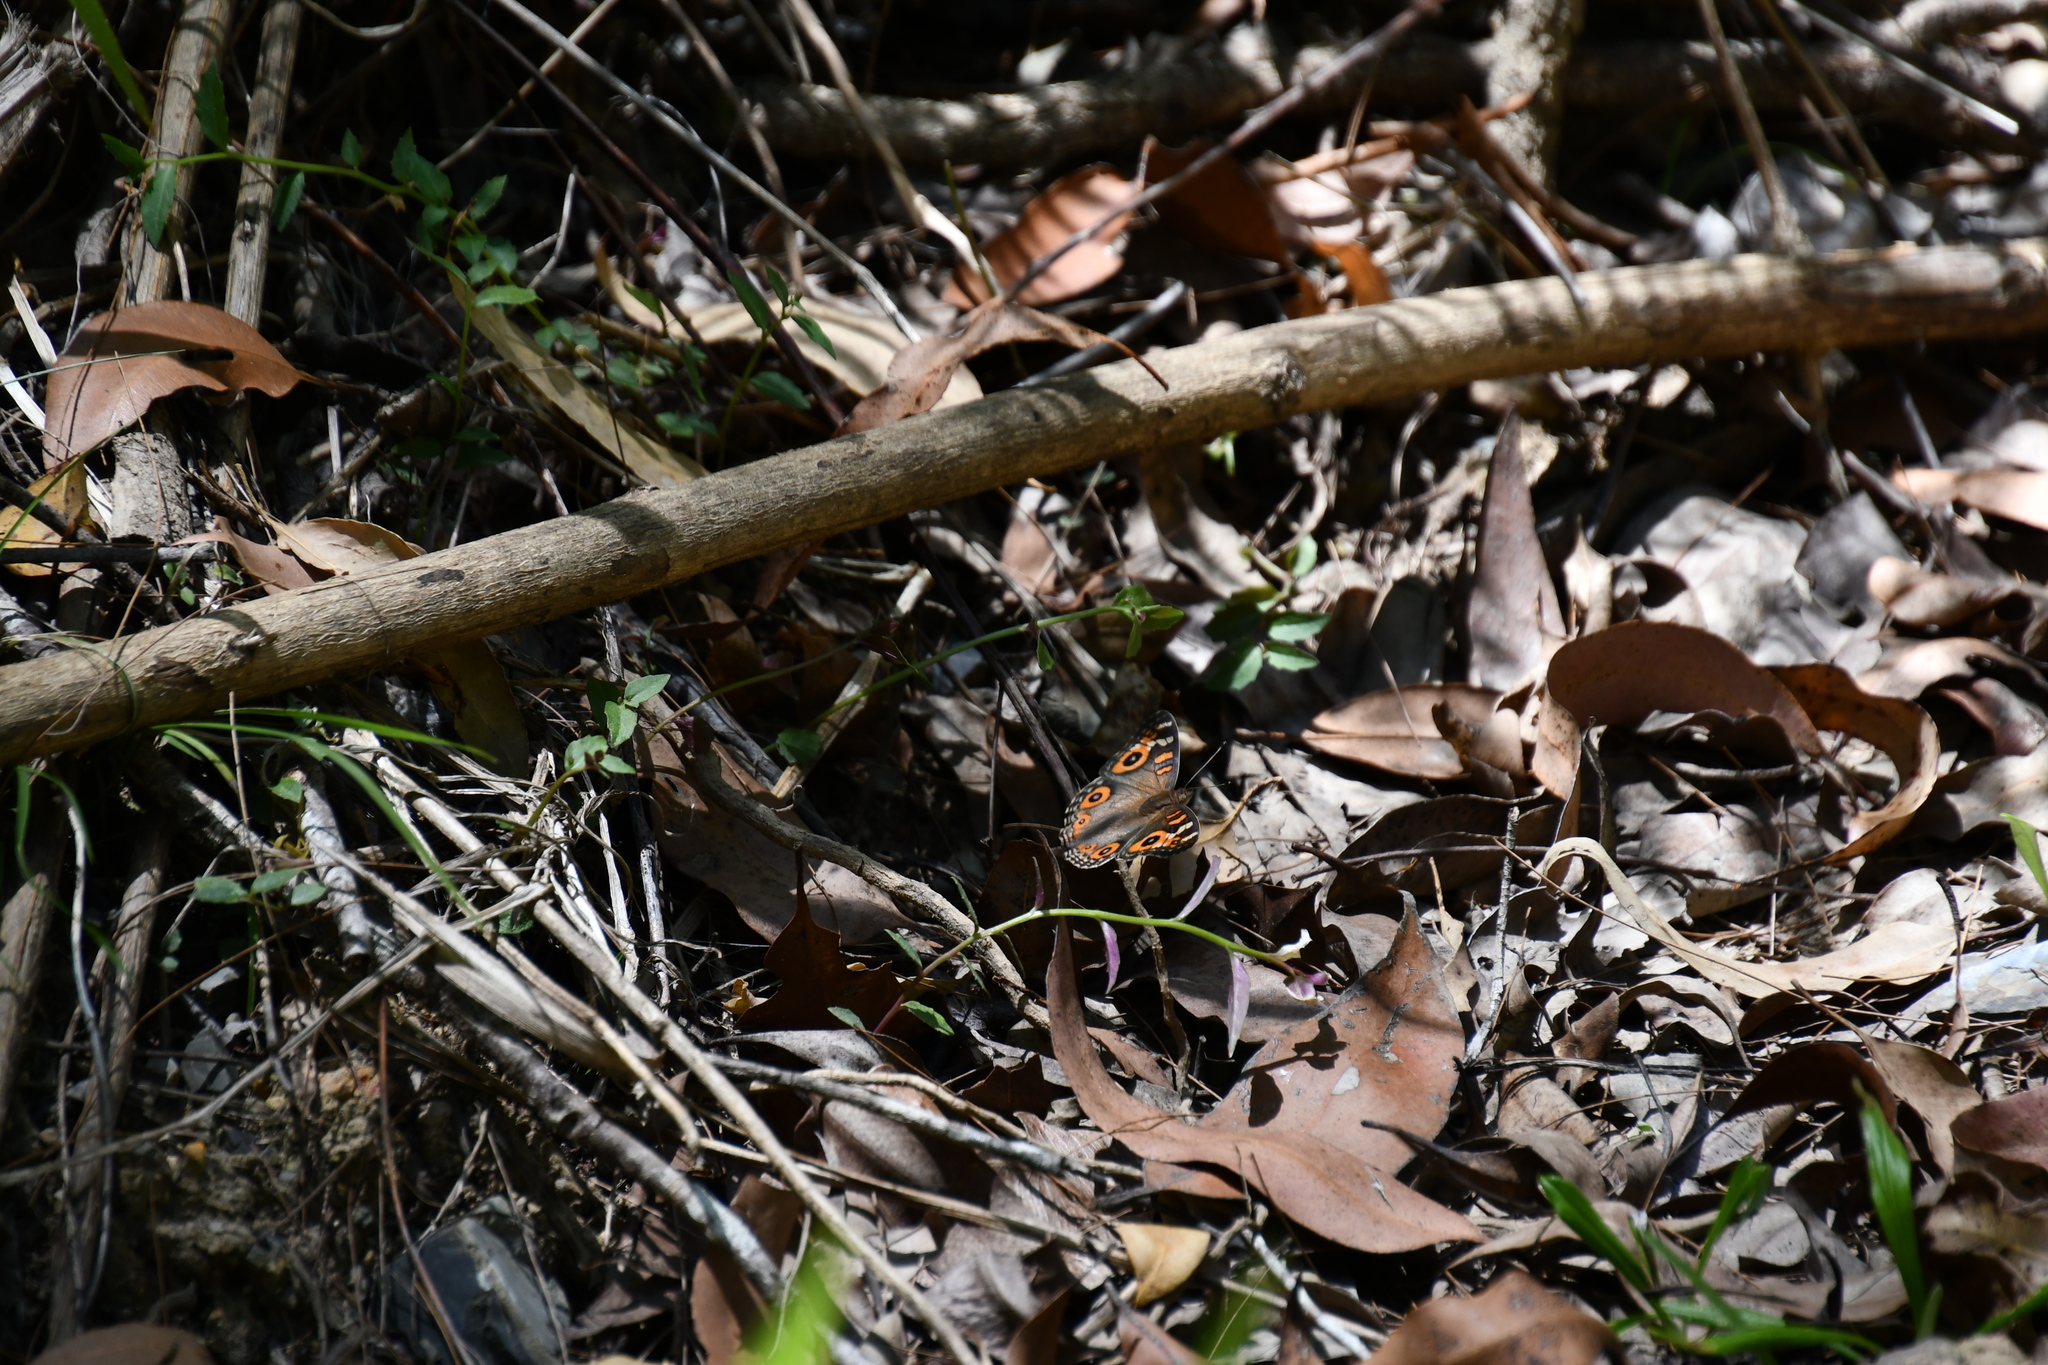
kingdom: Animalia
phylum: Arthropoda
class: Insecta
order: Lepidoptera
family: Nymphalidae
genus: Junonia
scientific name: Junonia villida
